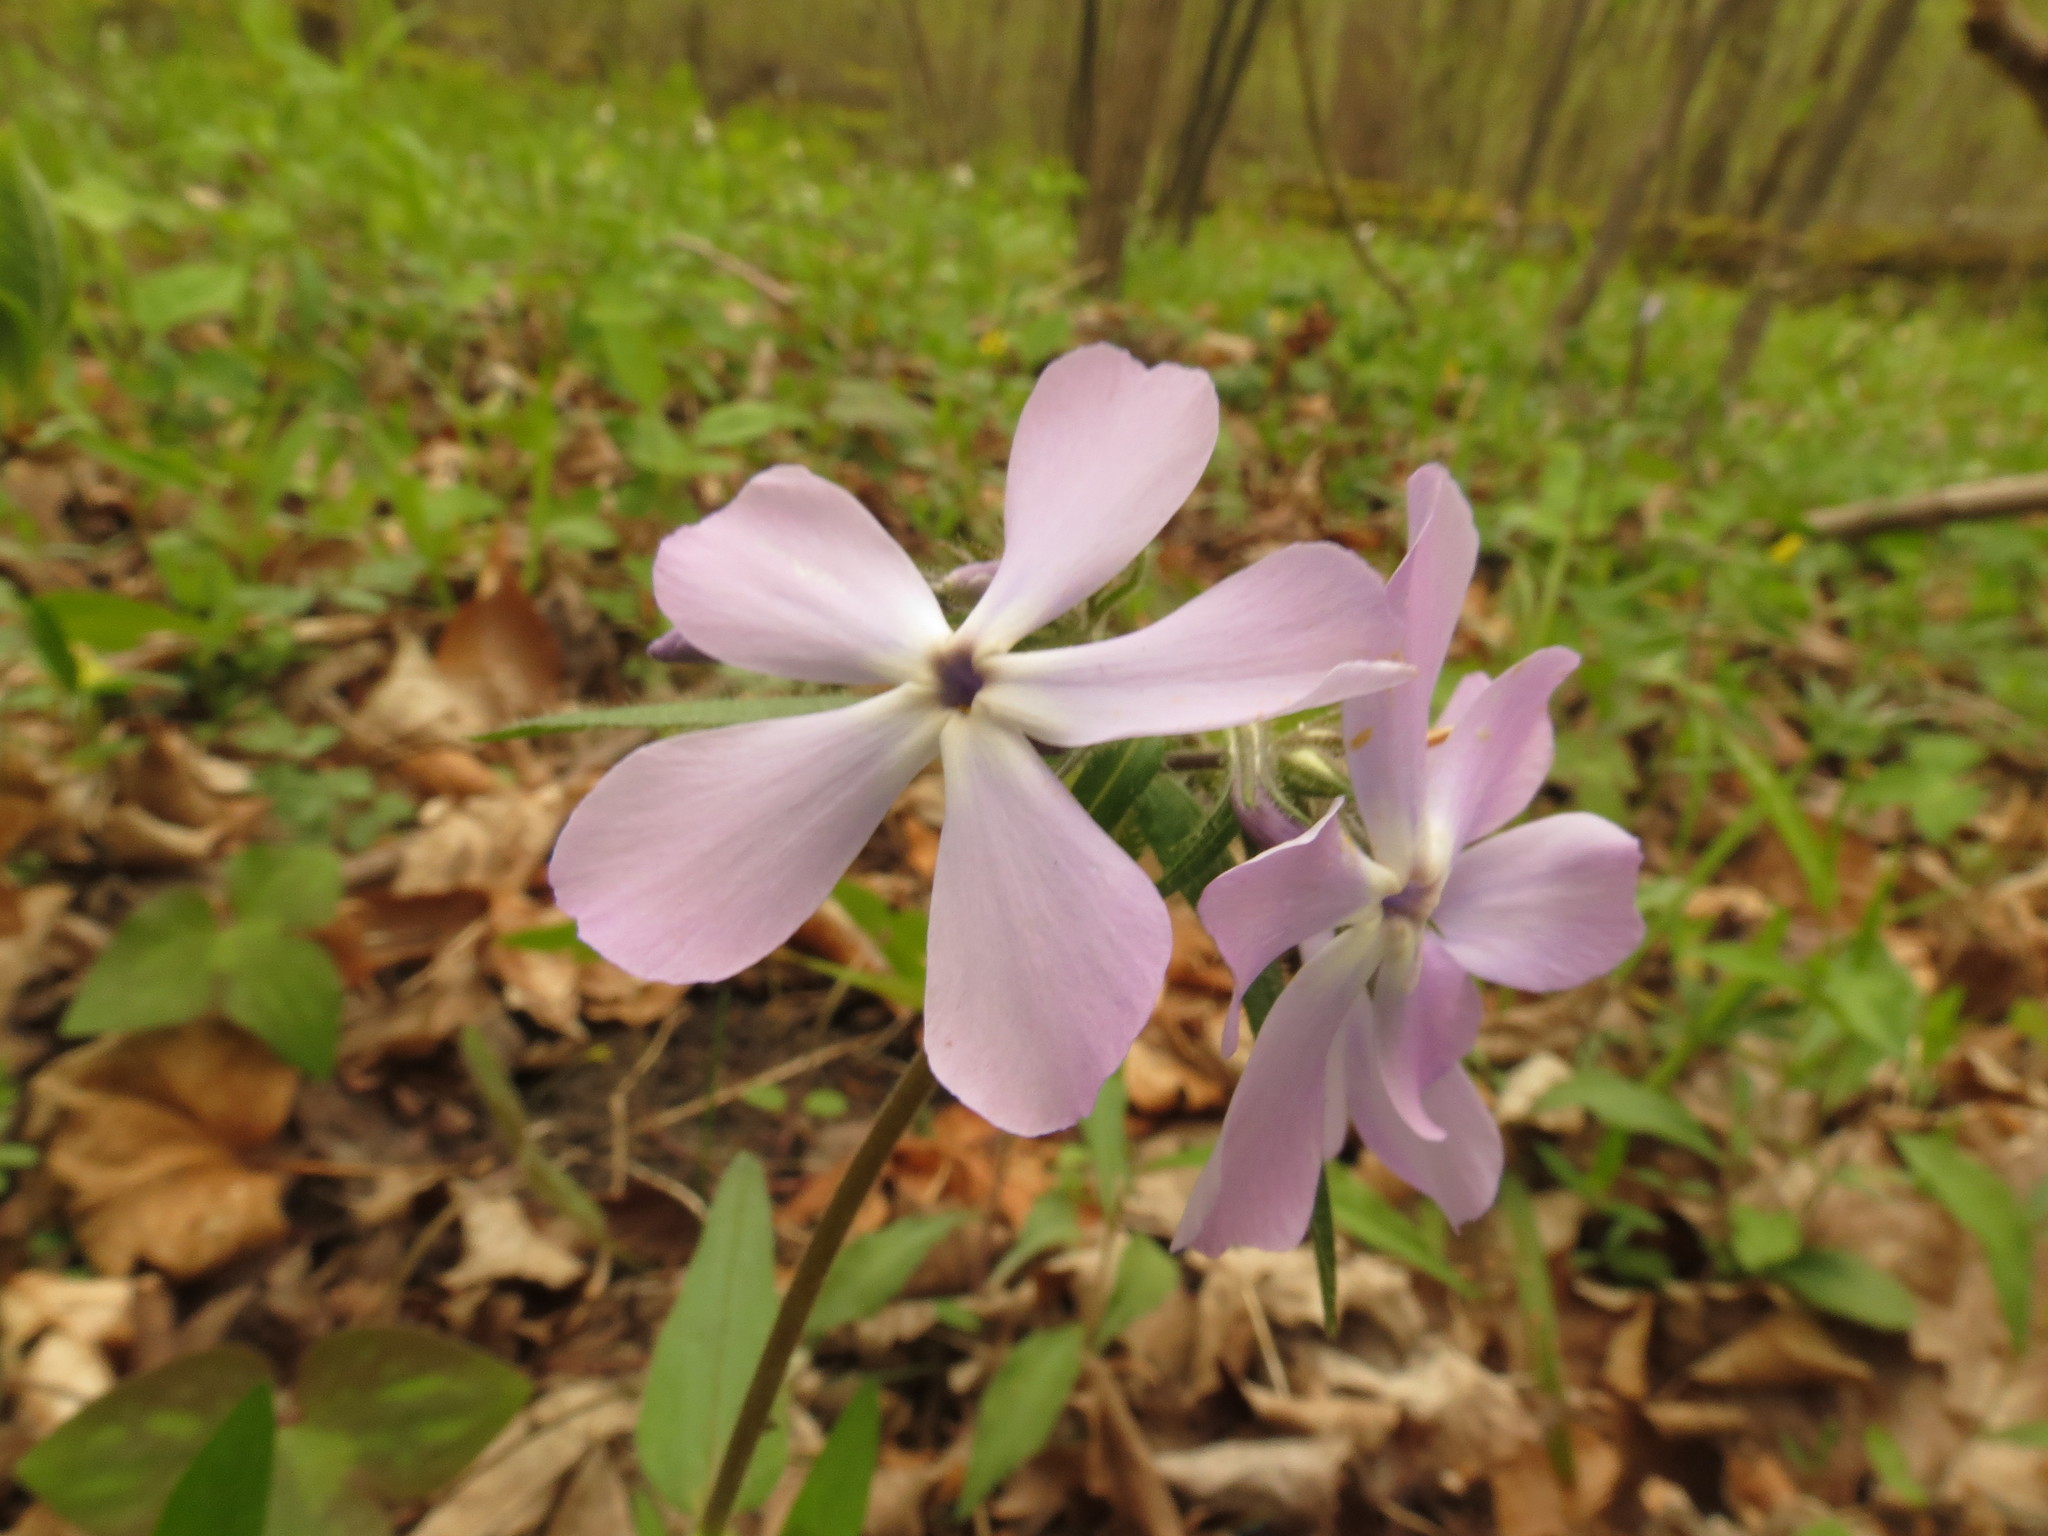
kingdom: Plantae
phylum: Tracheophyta
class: Magnoliopsida
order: Ericales
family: Polemoniaceae
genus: Phlox
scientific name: Phlox divaricata
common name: Blue phlox
